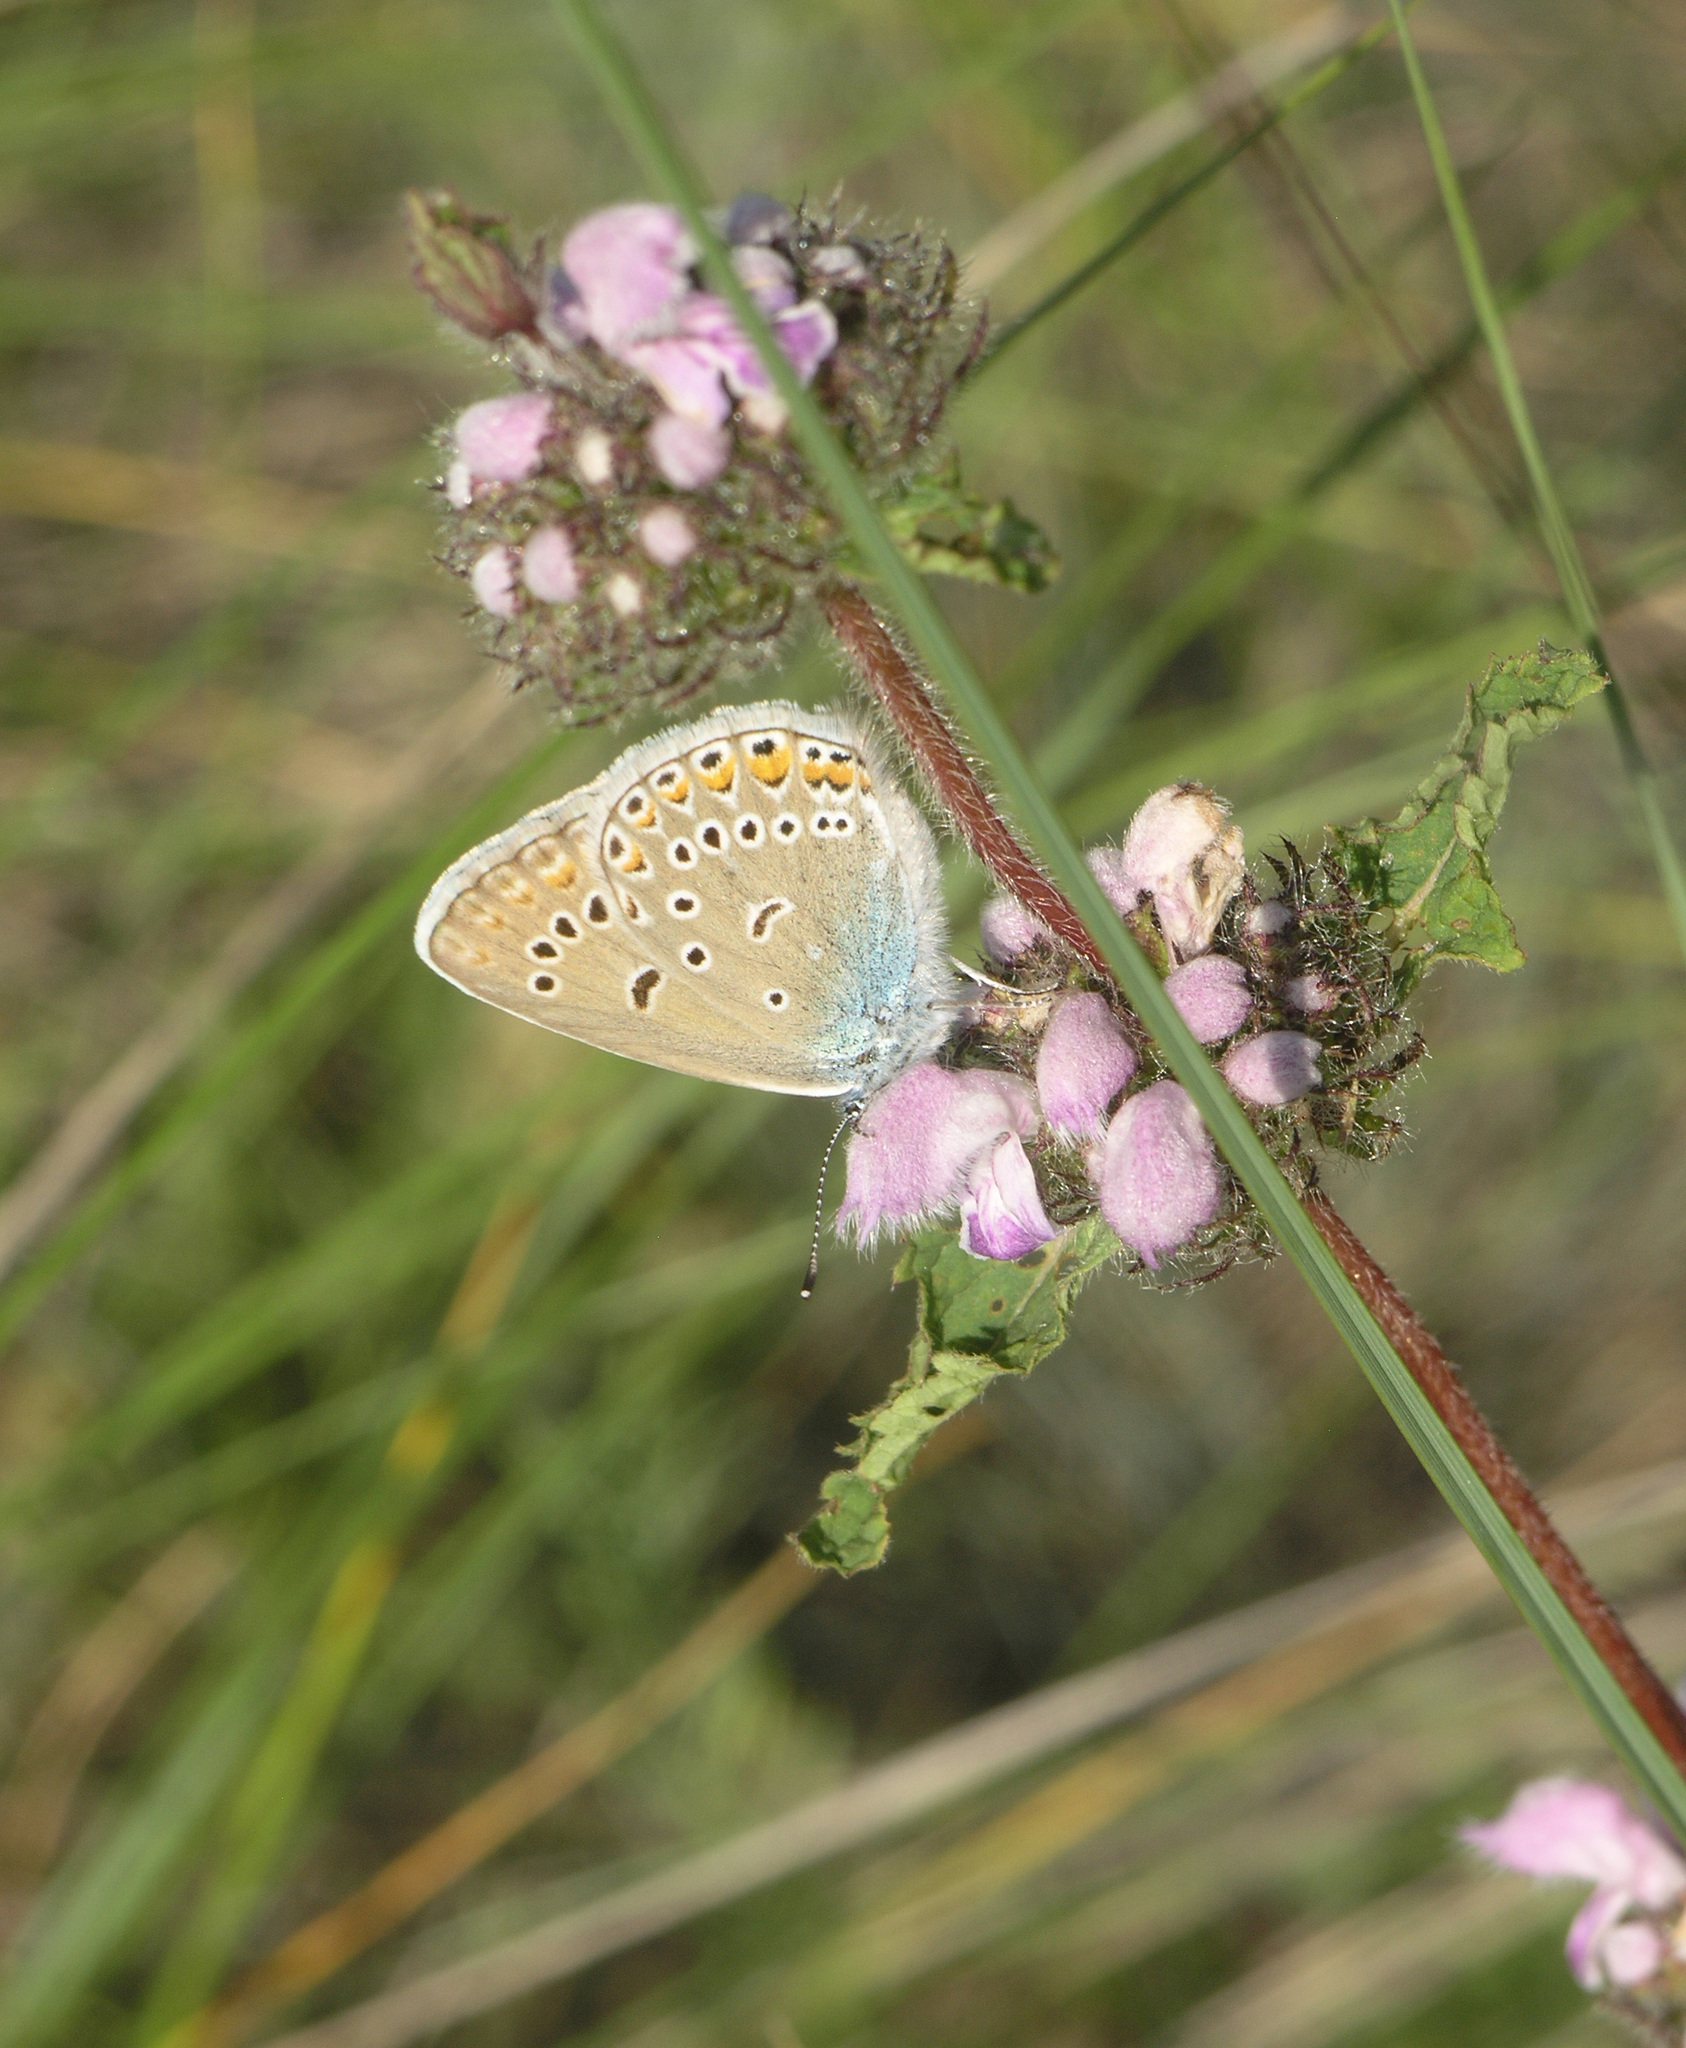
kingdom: Animalia
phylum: Arthropoda
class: Insecta
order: Lepidoptera
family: Lycaenidae
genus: Plebejus
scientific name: Plebejus amanda
